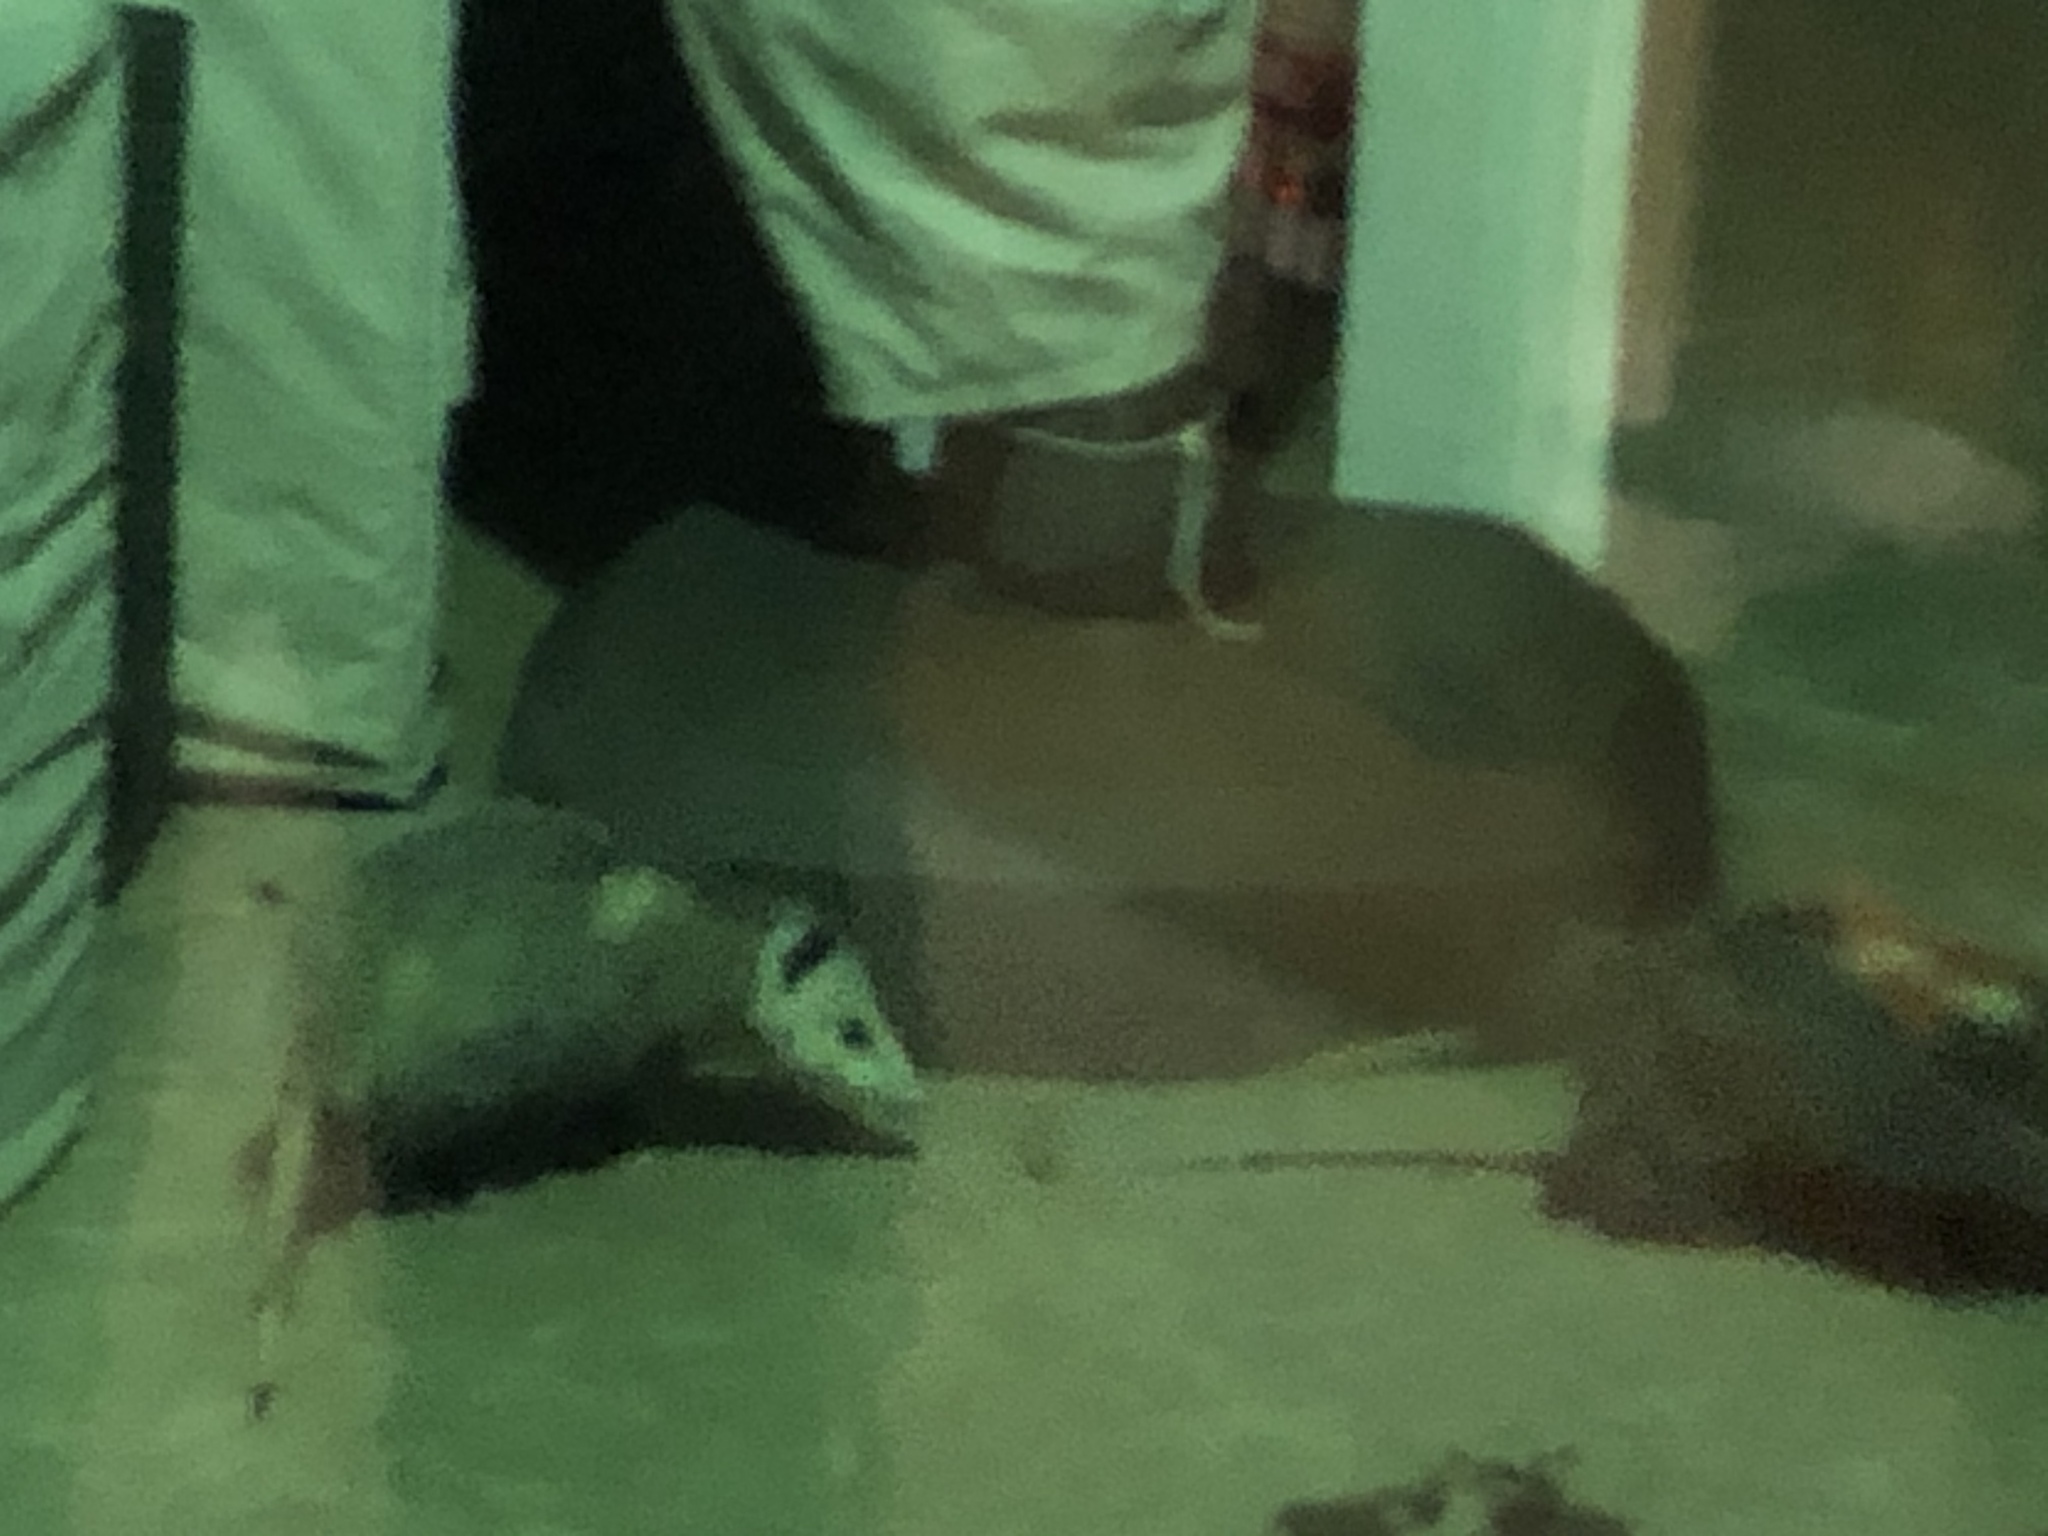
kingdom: Animalia
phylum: Chordata
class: Mammalia
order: Didelphimorphia
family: Didelphidae
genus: Didelphis
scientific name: Didelphis virginiana
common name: Virginia opossum
